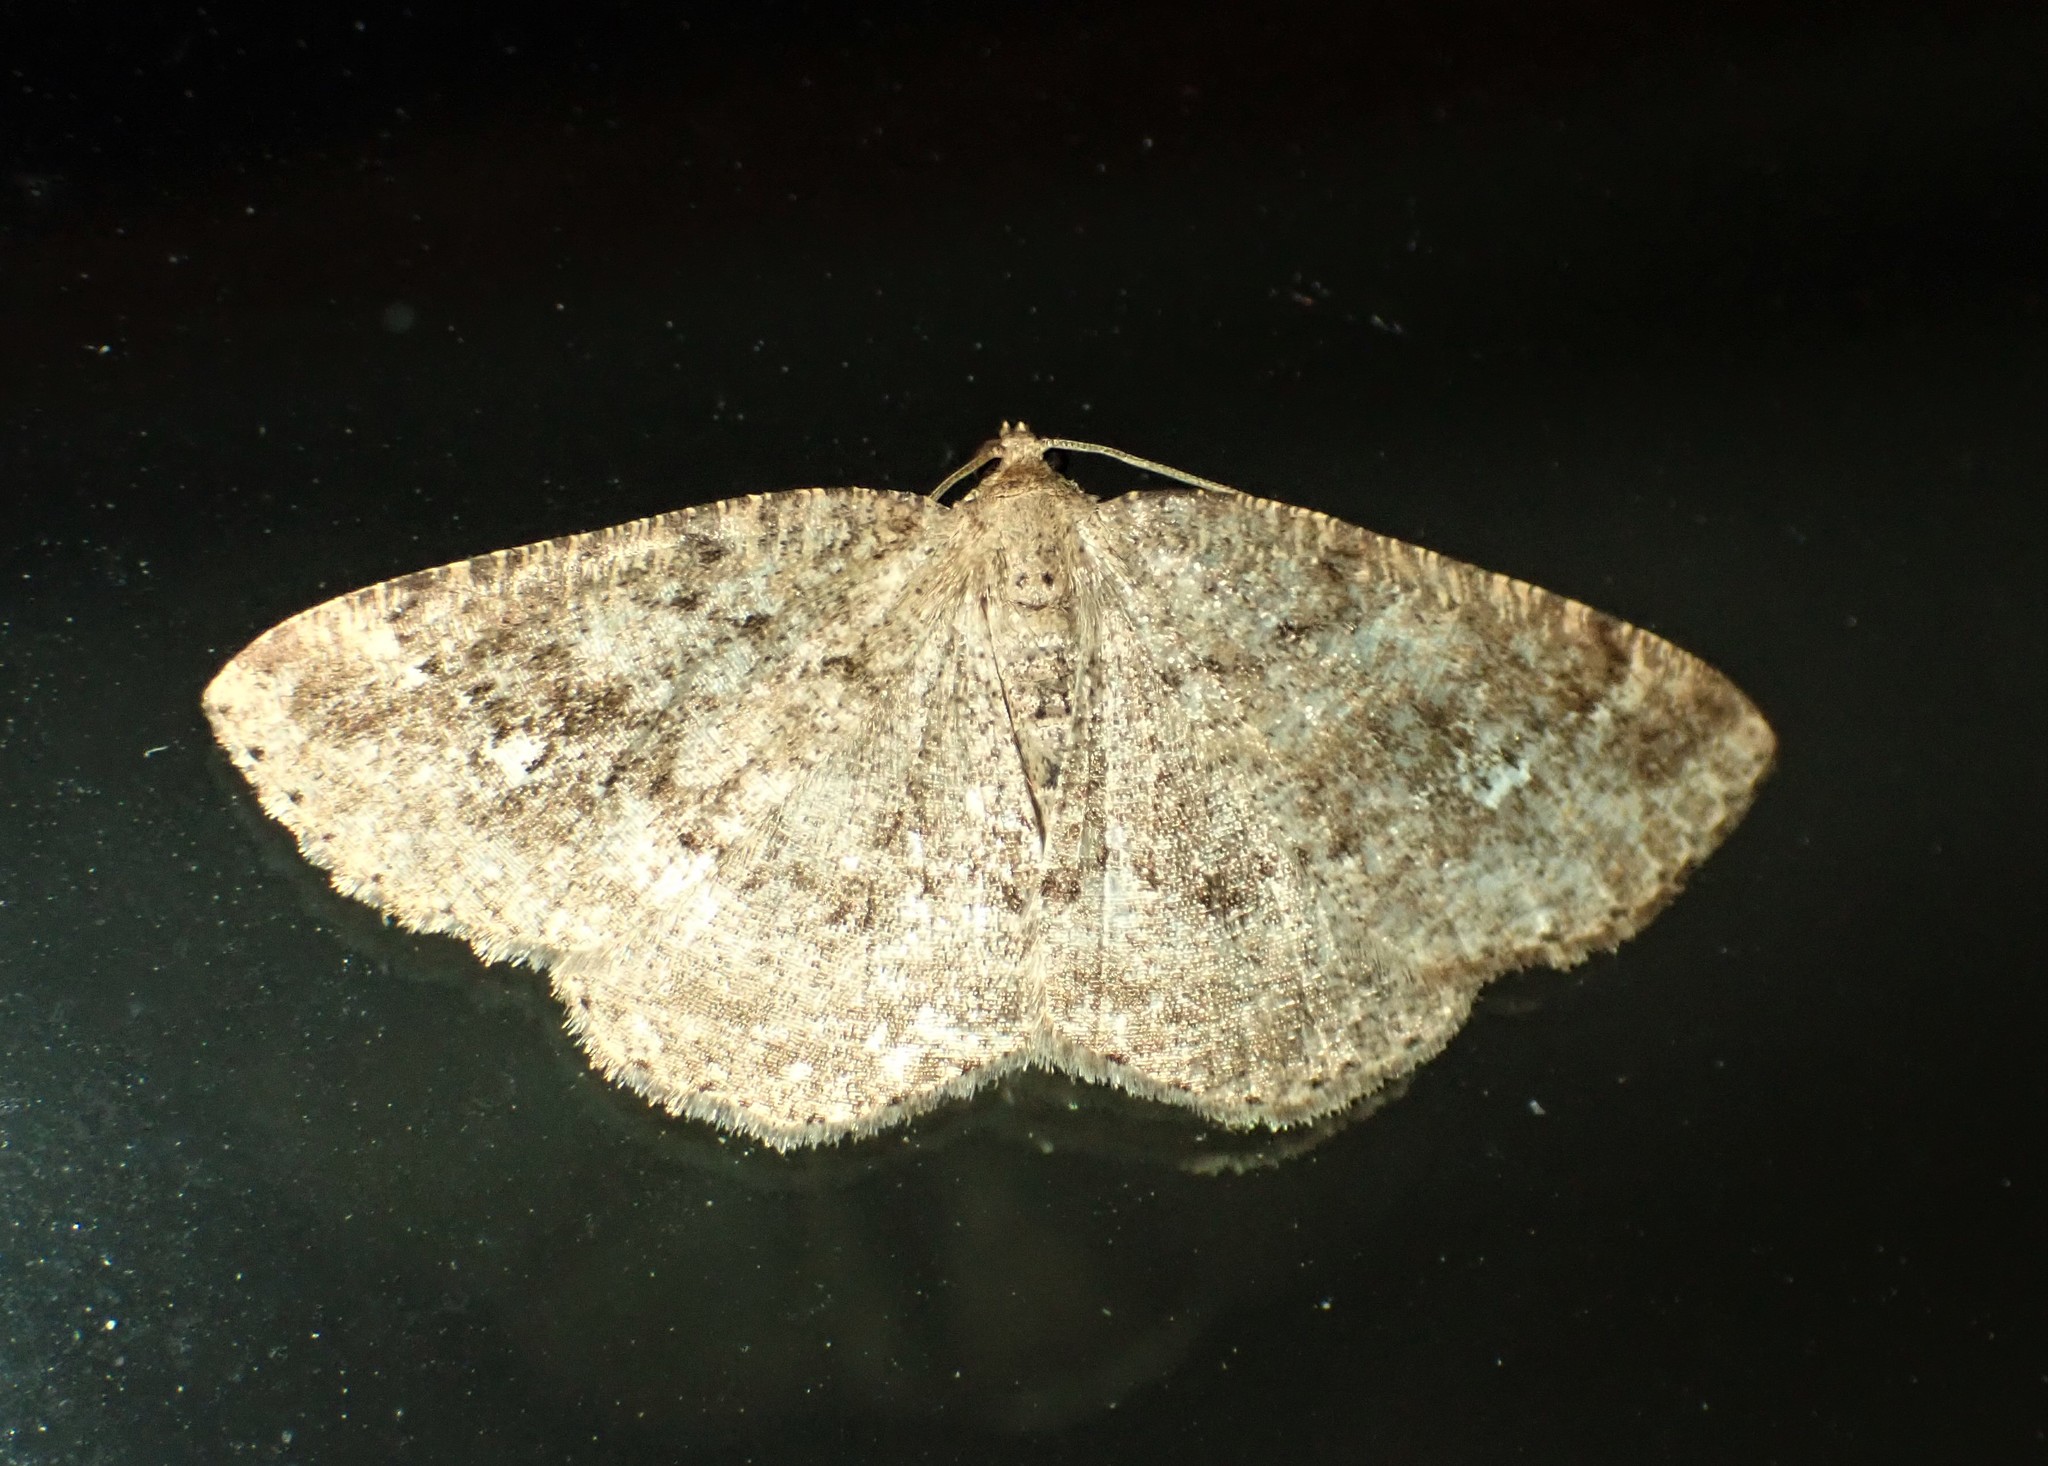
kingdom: Animalia
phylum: Arthropoda
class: Insecta
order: Lepidoptera
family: Geometridae
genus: Homochlodes
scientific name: Homochlodes fritillaria
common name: Pale homochlodes
